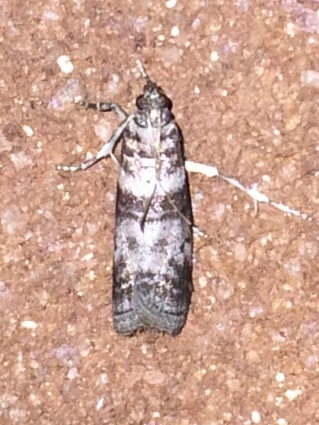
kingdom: Animalia
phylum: Arthropoda
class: Insecta
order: Lepidoptera
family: Pyralidae
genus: Sciota
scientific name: Sciota uvinella
